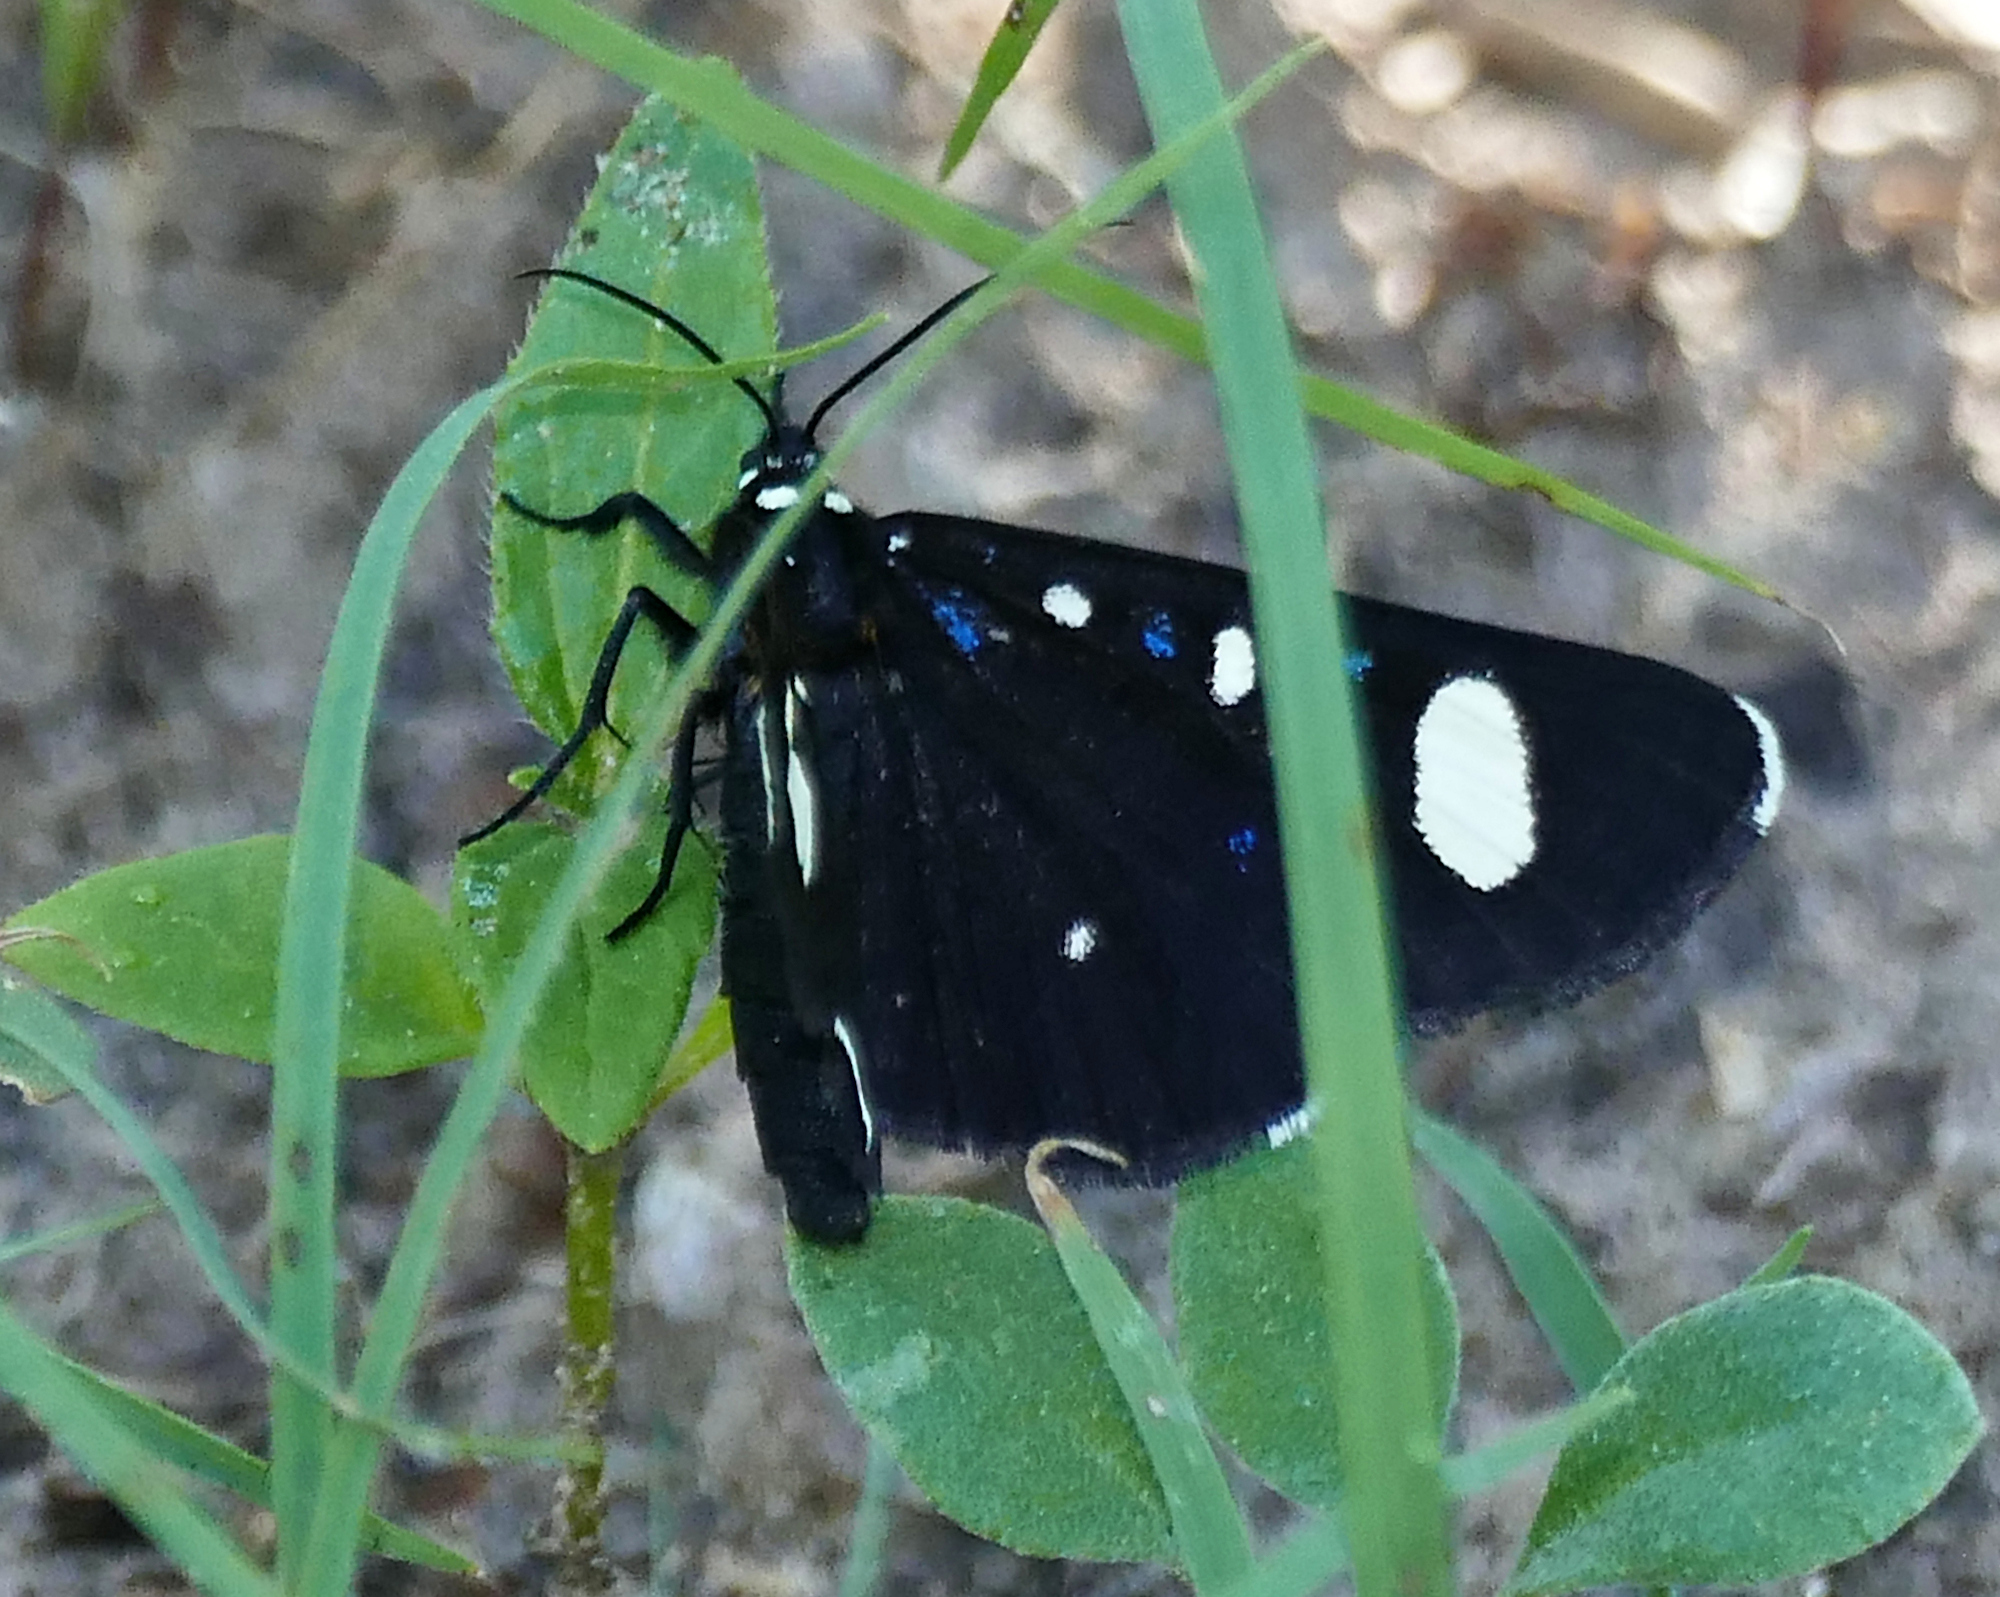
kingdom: Animalia
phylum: Arthropoda
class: Insecta
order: Lepidoptera
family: Noctuidae
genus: Alypiodes
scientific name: Alypiodes bimaculata
